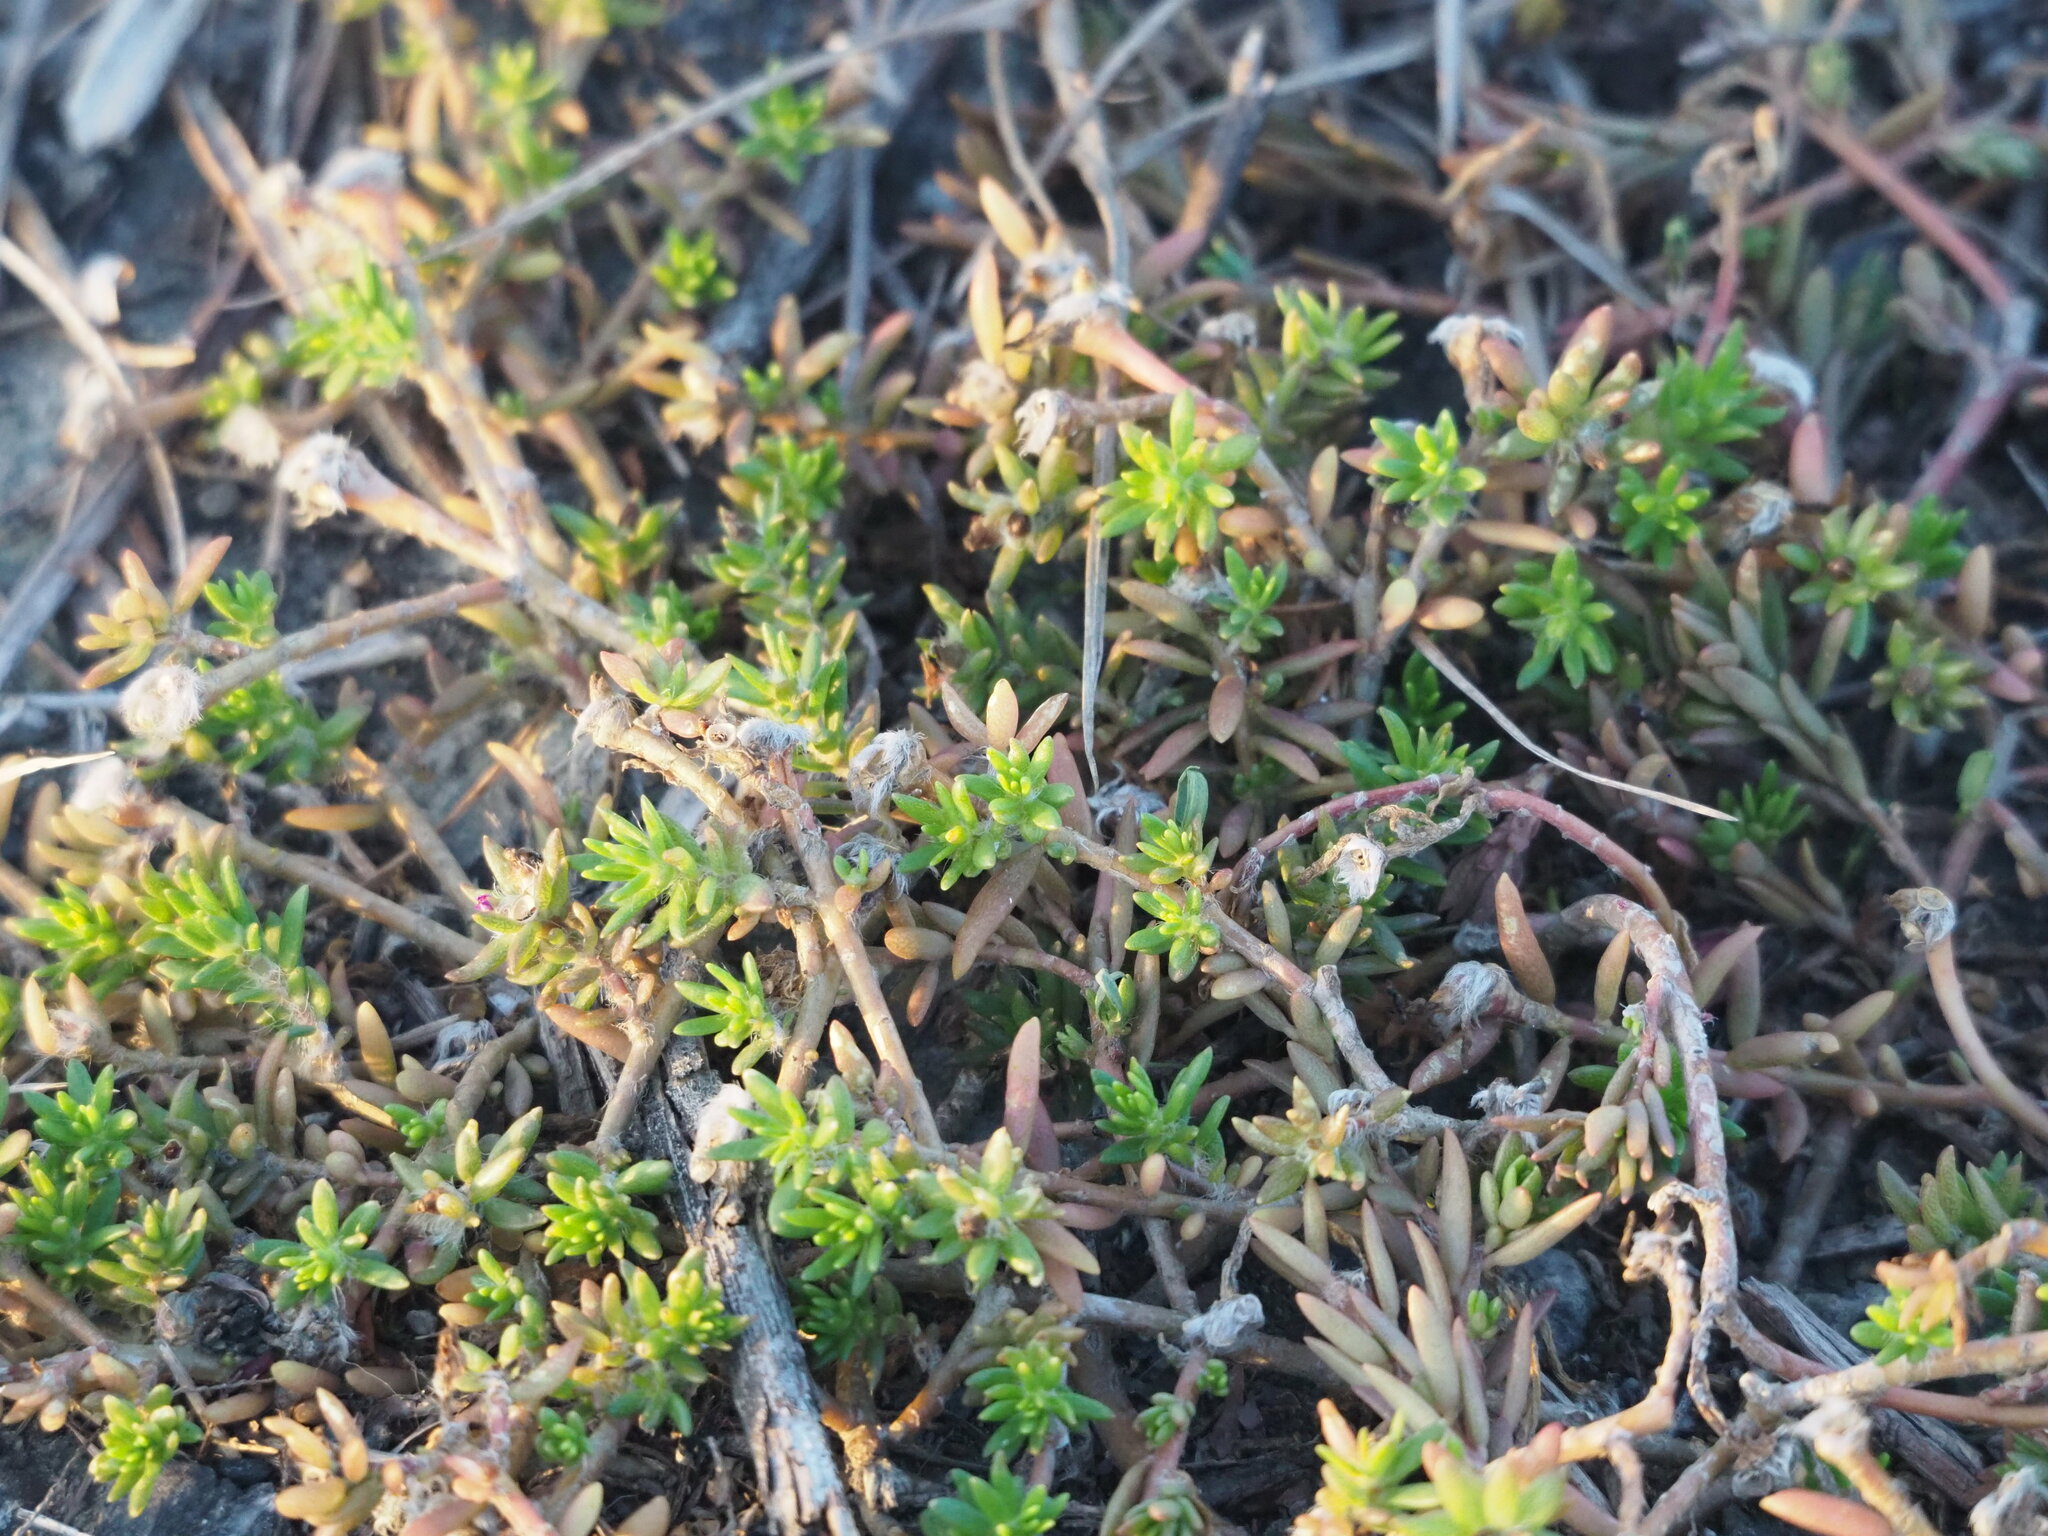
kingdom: Plantae
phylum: Tracheophyta
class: Magnoliopsida
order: Caryophyllales
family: Portulacaceae
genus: Portulaca
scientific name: Portulaca pilosa
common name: Kiss me quick
